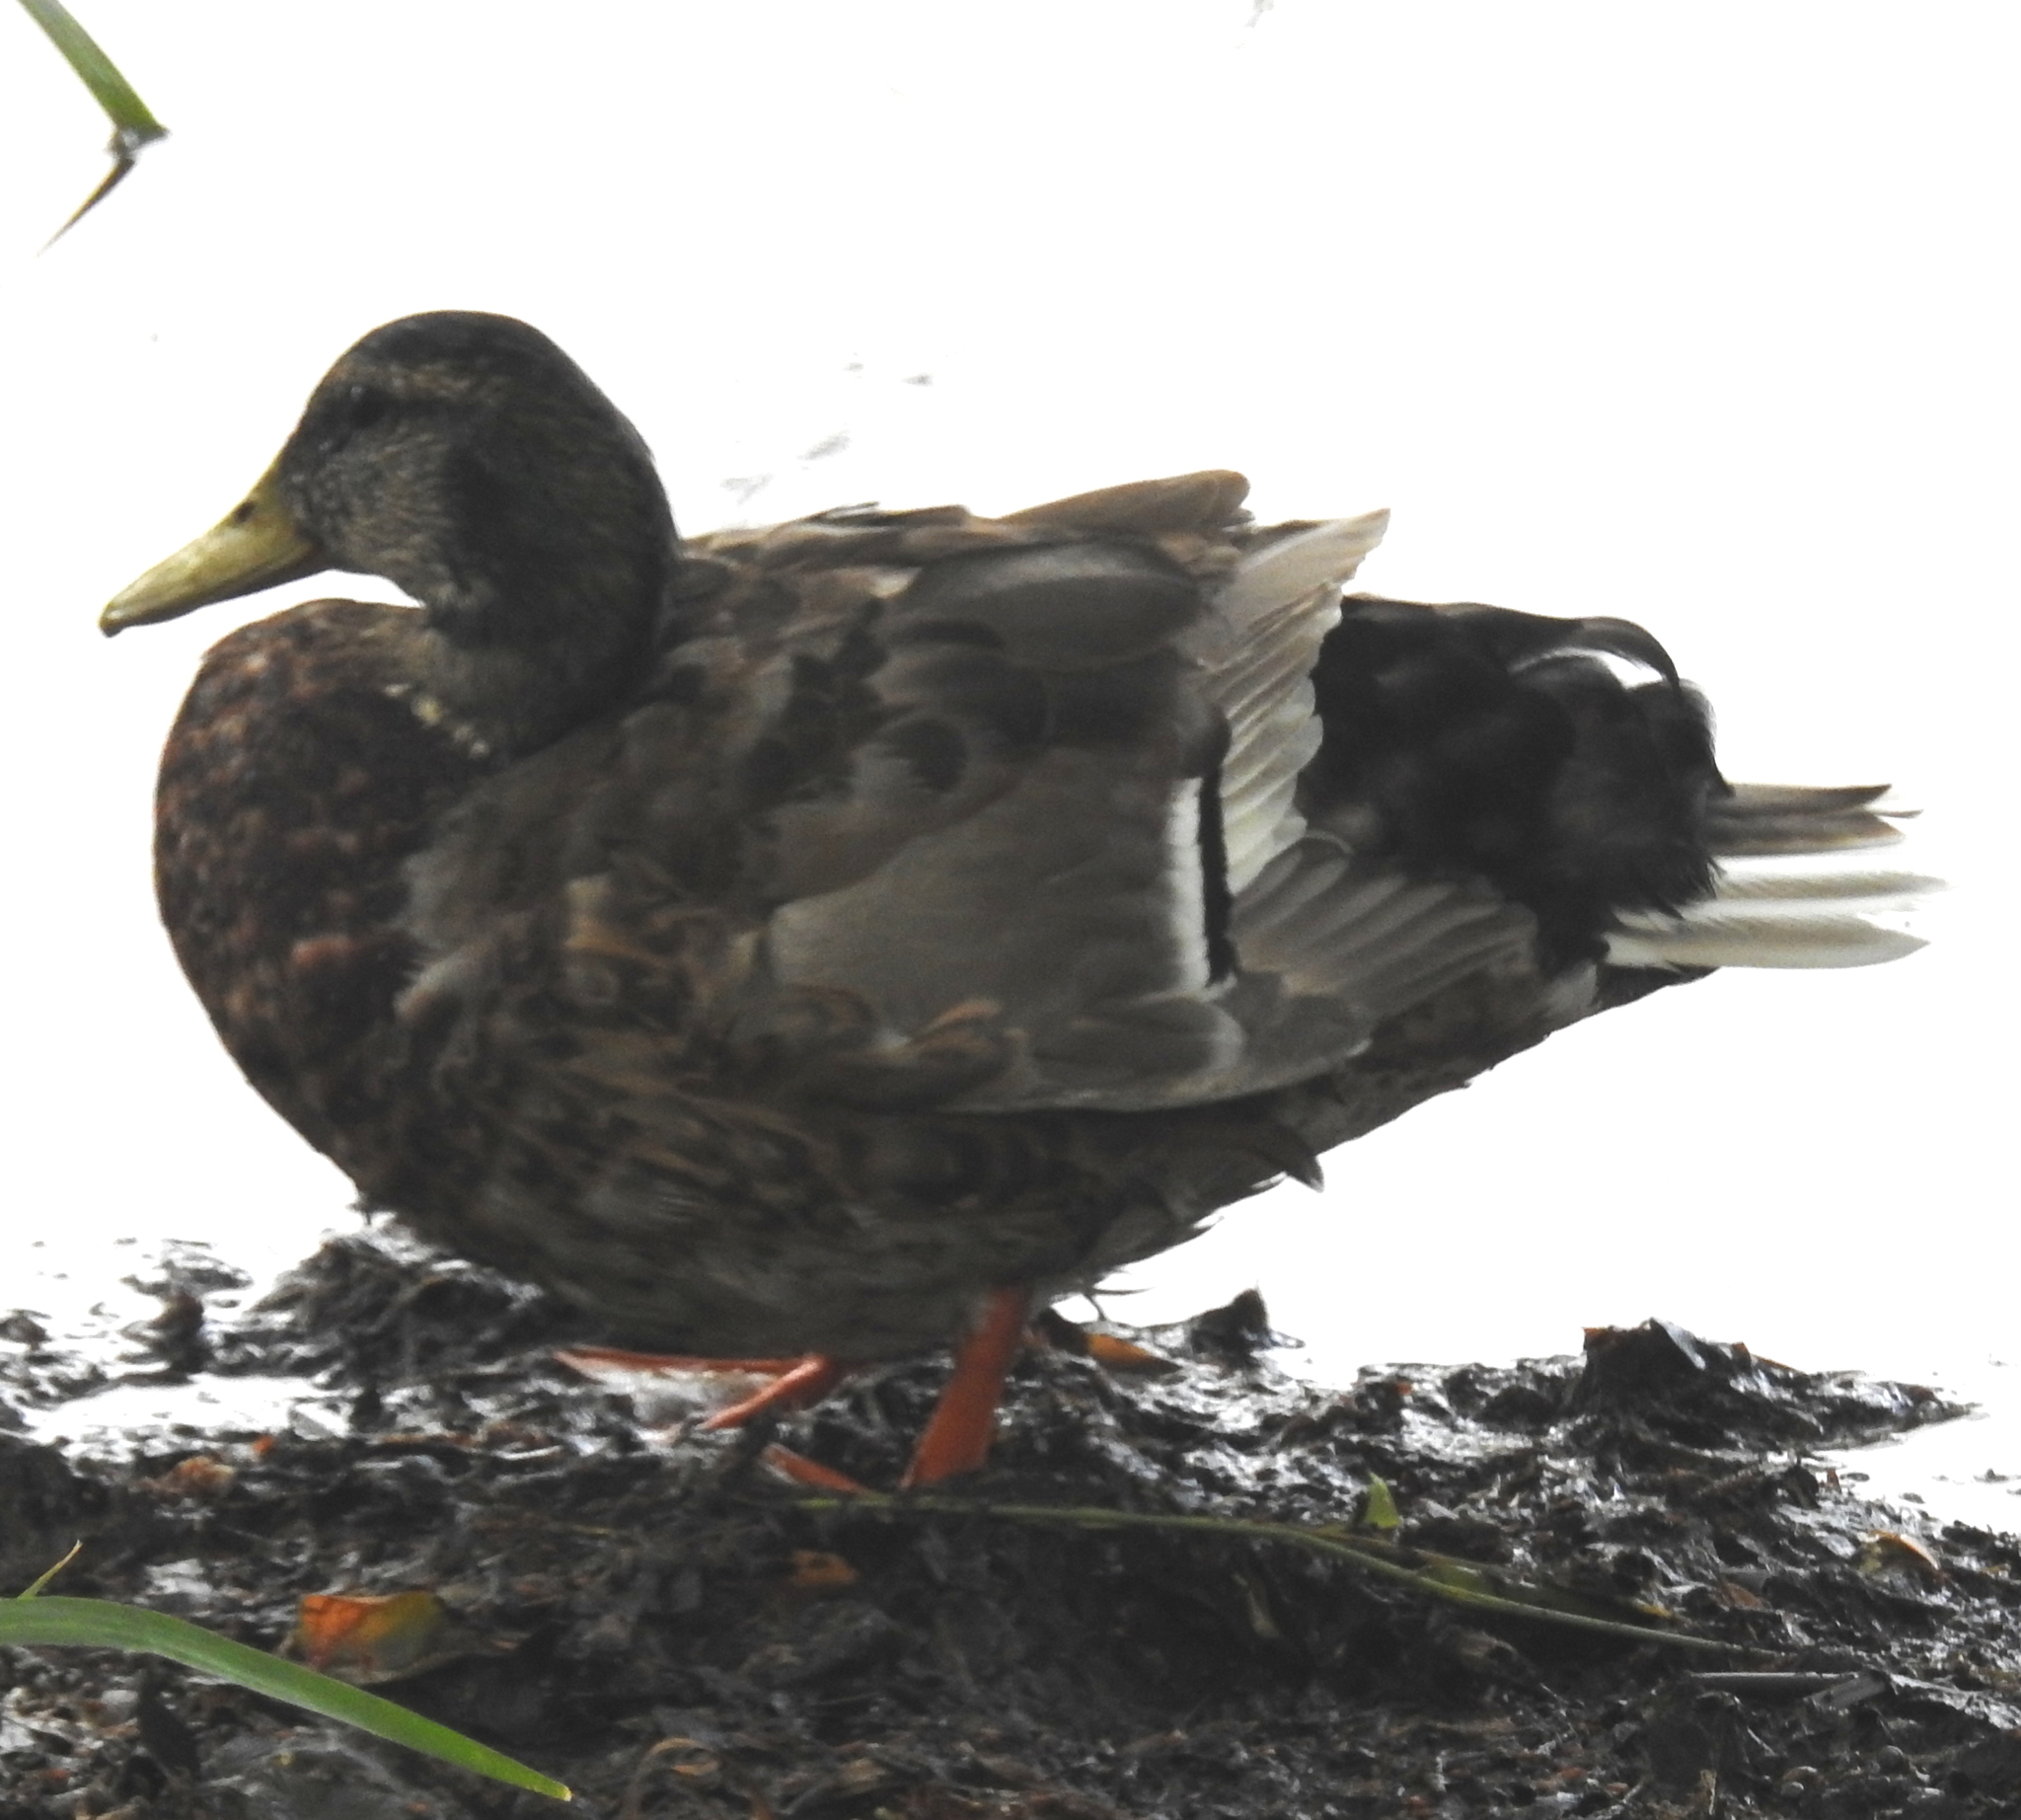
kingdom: Animalia
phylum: Chordata
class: Aves
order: Anseriformes
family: Anatidae
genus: Anas
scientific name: Anas platyrhynchos
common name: Mallard
